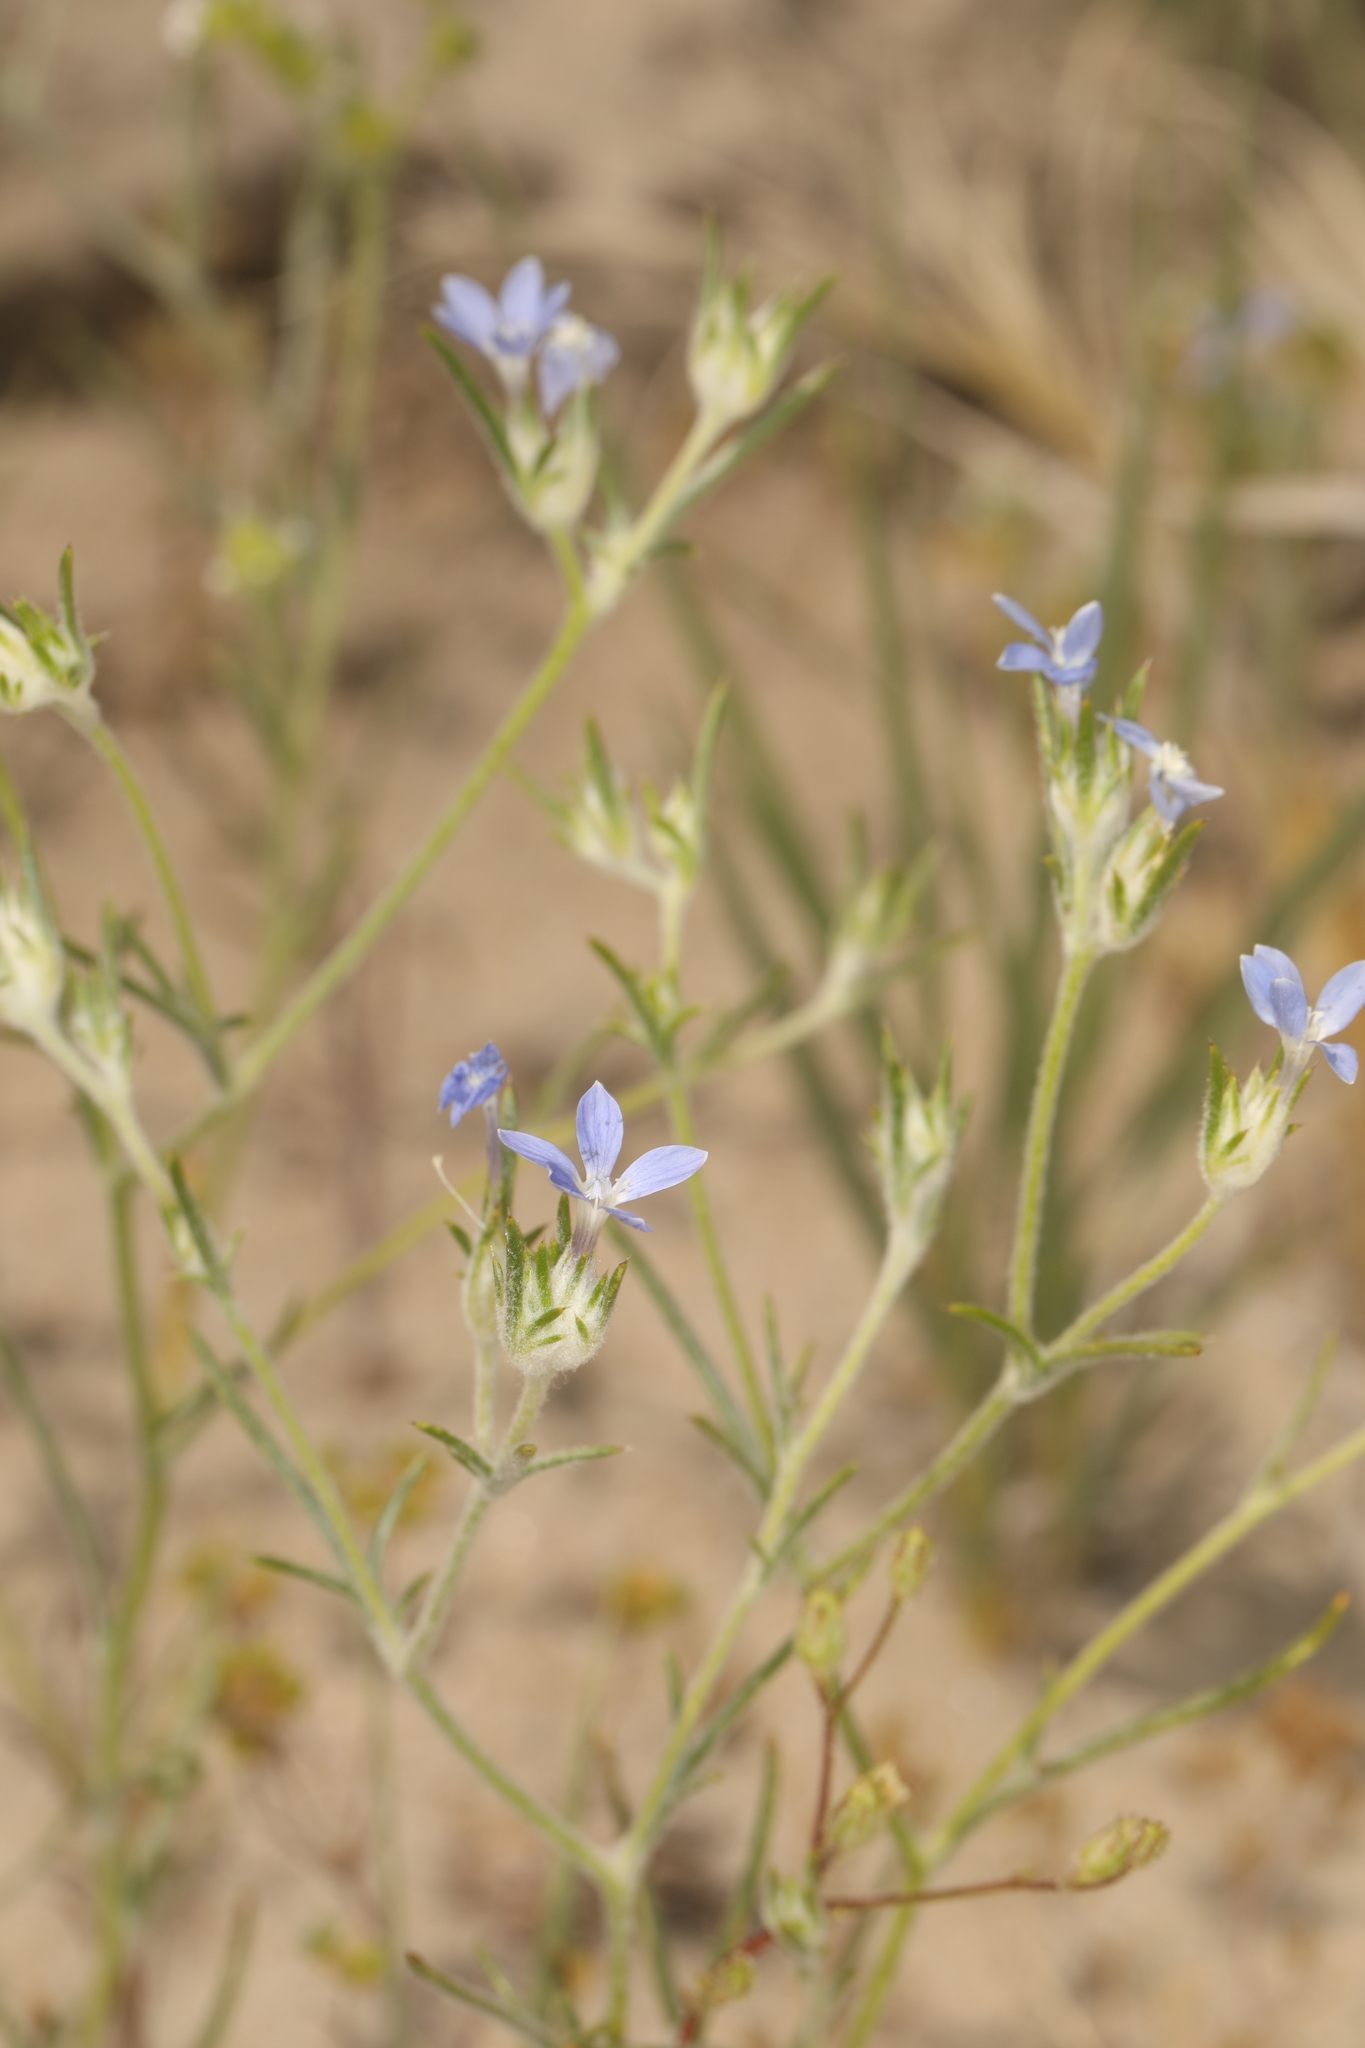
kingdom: Plantae
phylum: Tracheophyta
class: Magnoliopsida
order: Ericales
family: Polemoniaceae
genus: Eriastrum
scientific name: Eriastrum wilcoxii
